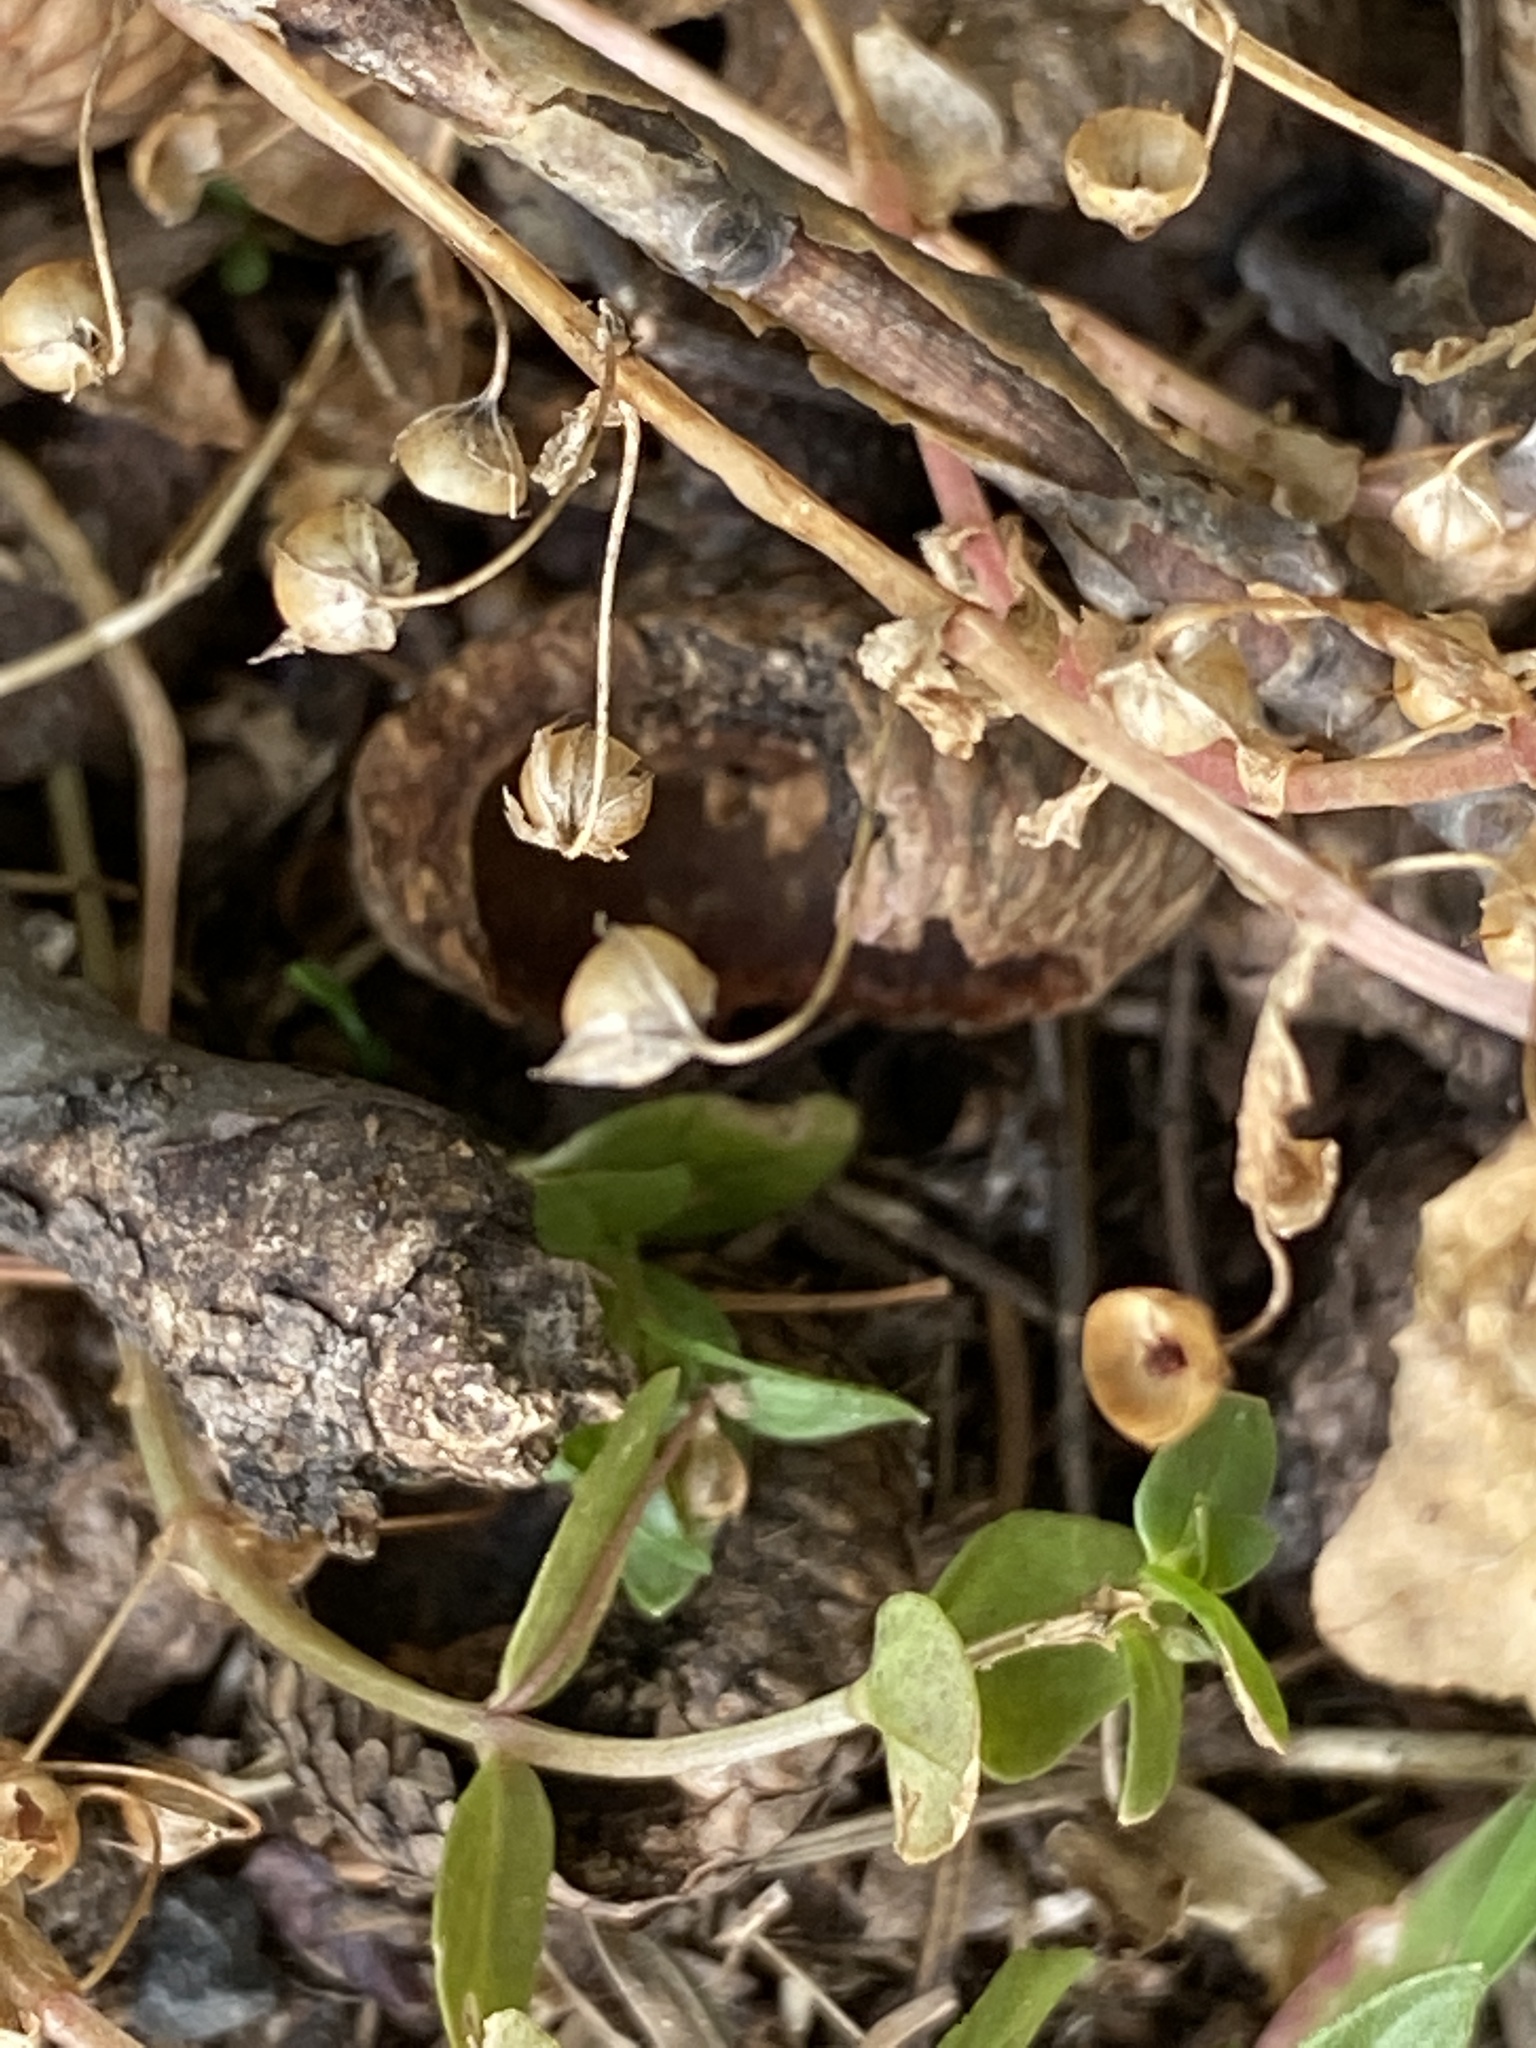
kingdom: Plantae
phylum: Tracheophyta
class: Magnoliopsida
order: Ericales
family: Primulaceae
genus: Lysimachia
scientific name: Lysimachia arvensis
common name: Scarlet pimpernel
